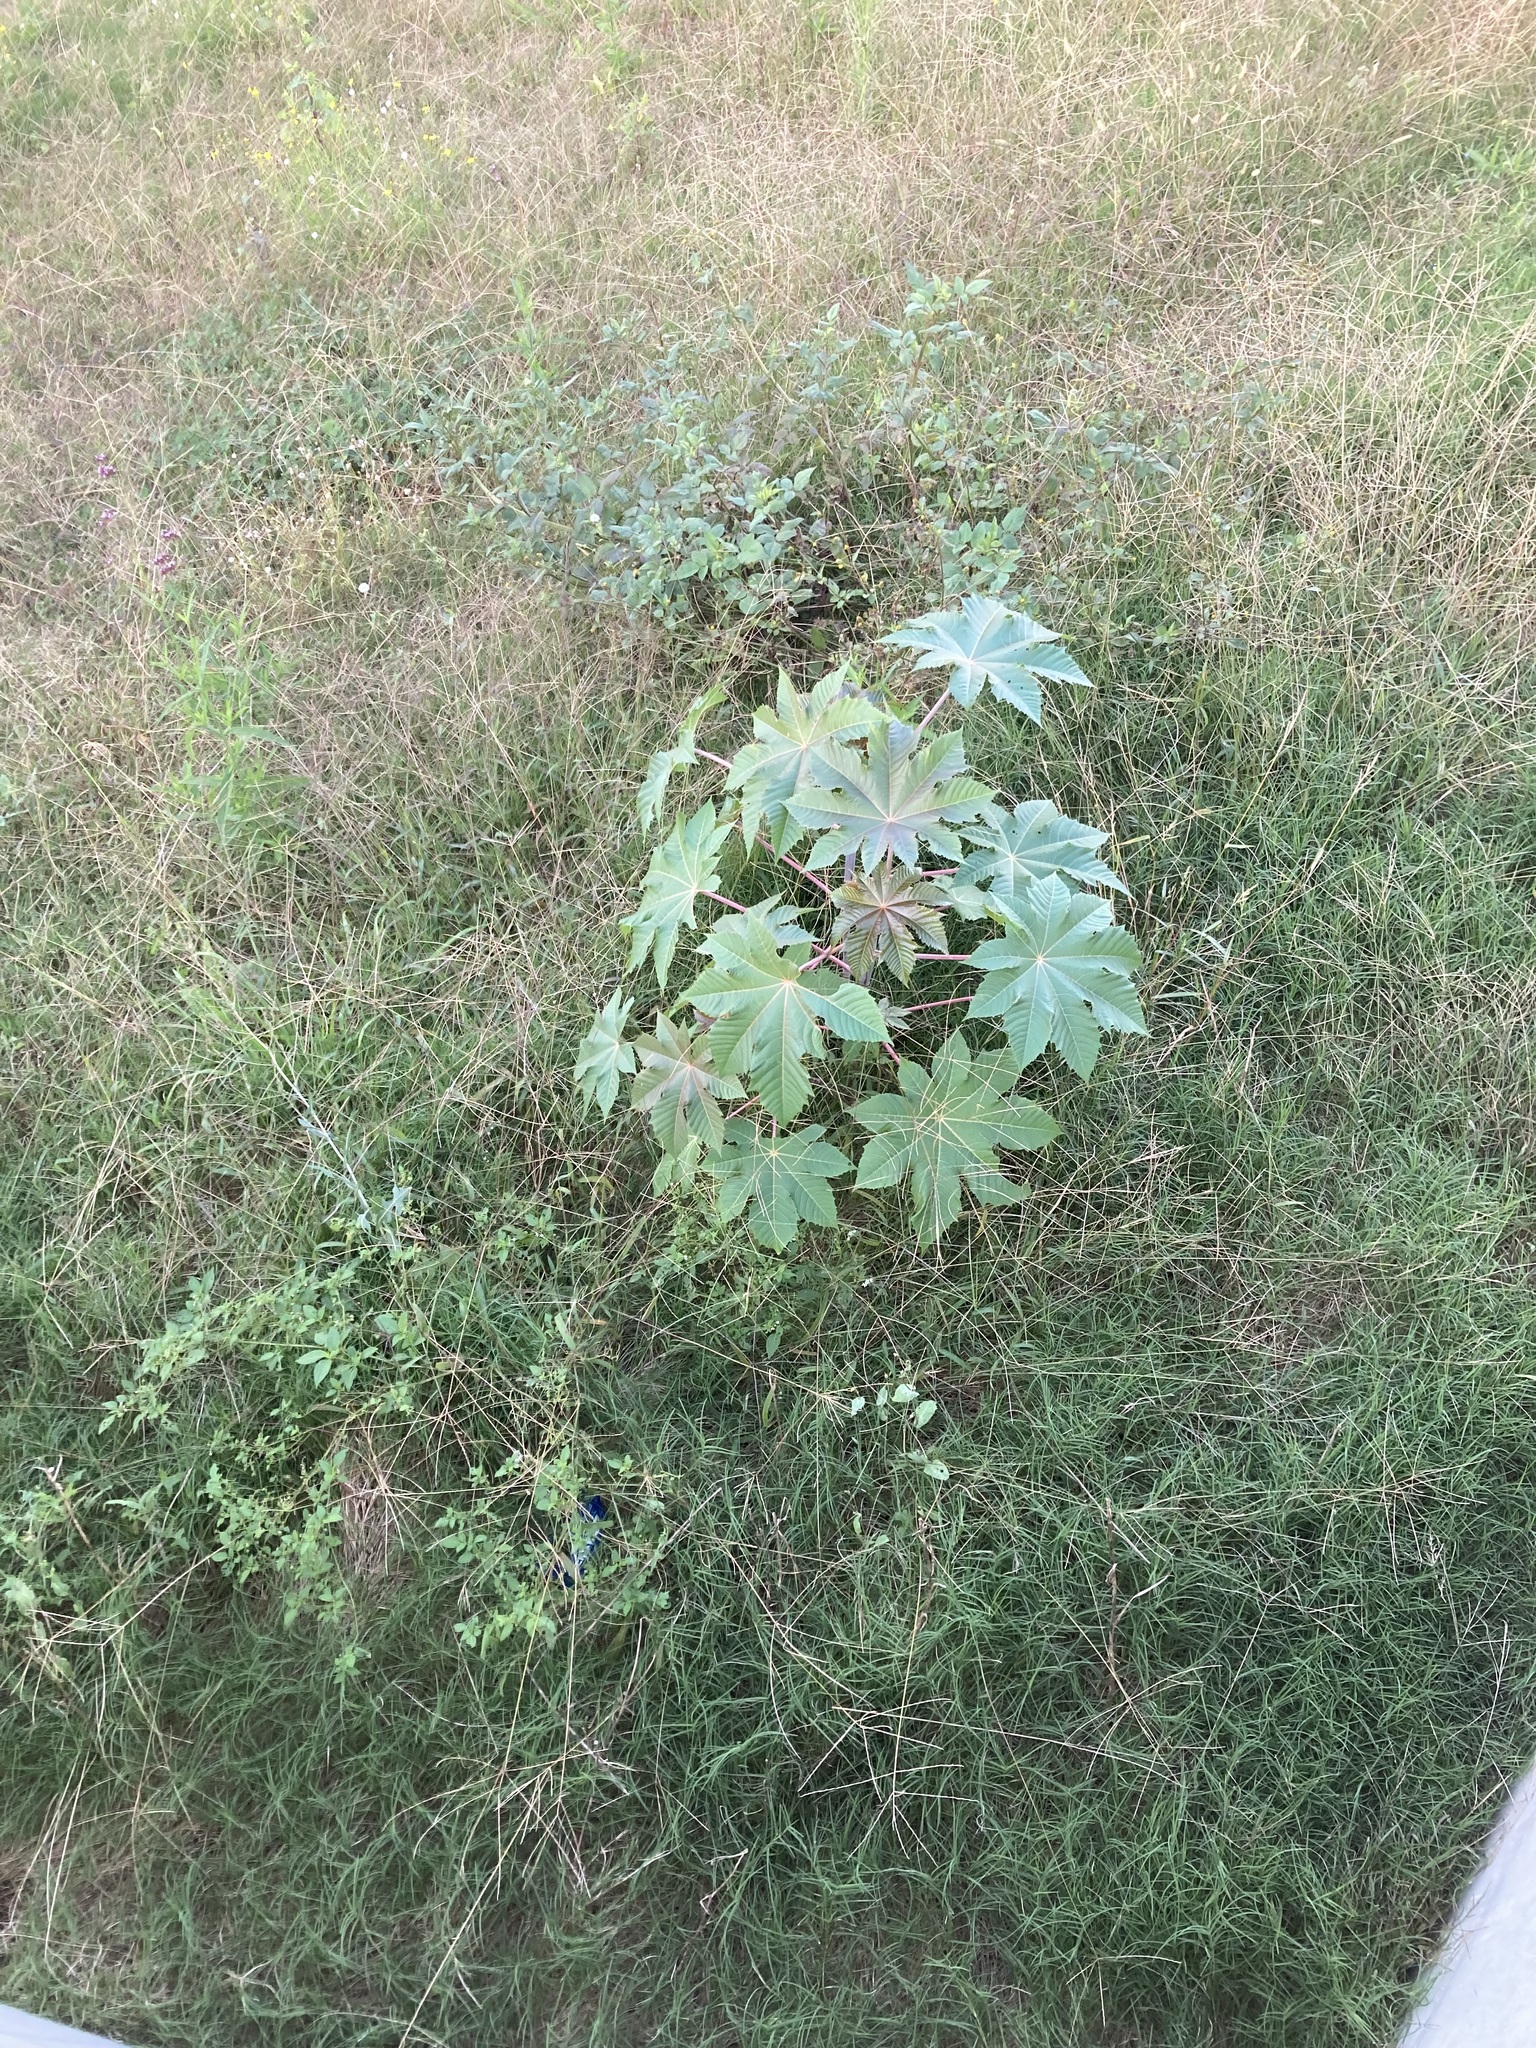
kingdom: Plantae
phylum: Tracheophyta
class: Magnoliopsida
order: Malpighiales
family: Euphorbiaceae
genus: Ricinus
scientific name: Ricinus communis
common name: Castor-oil-plant
